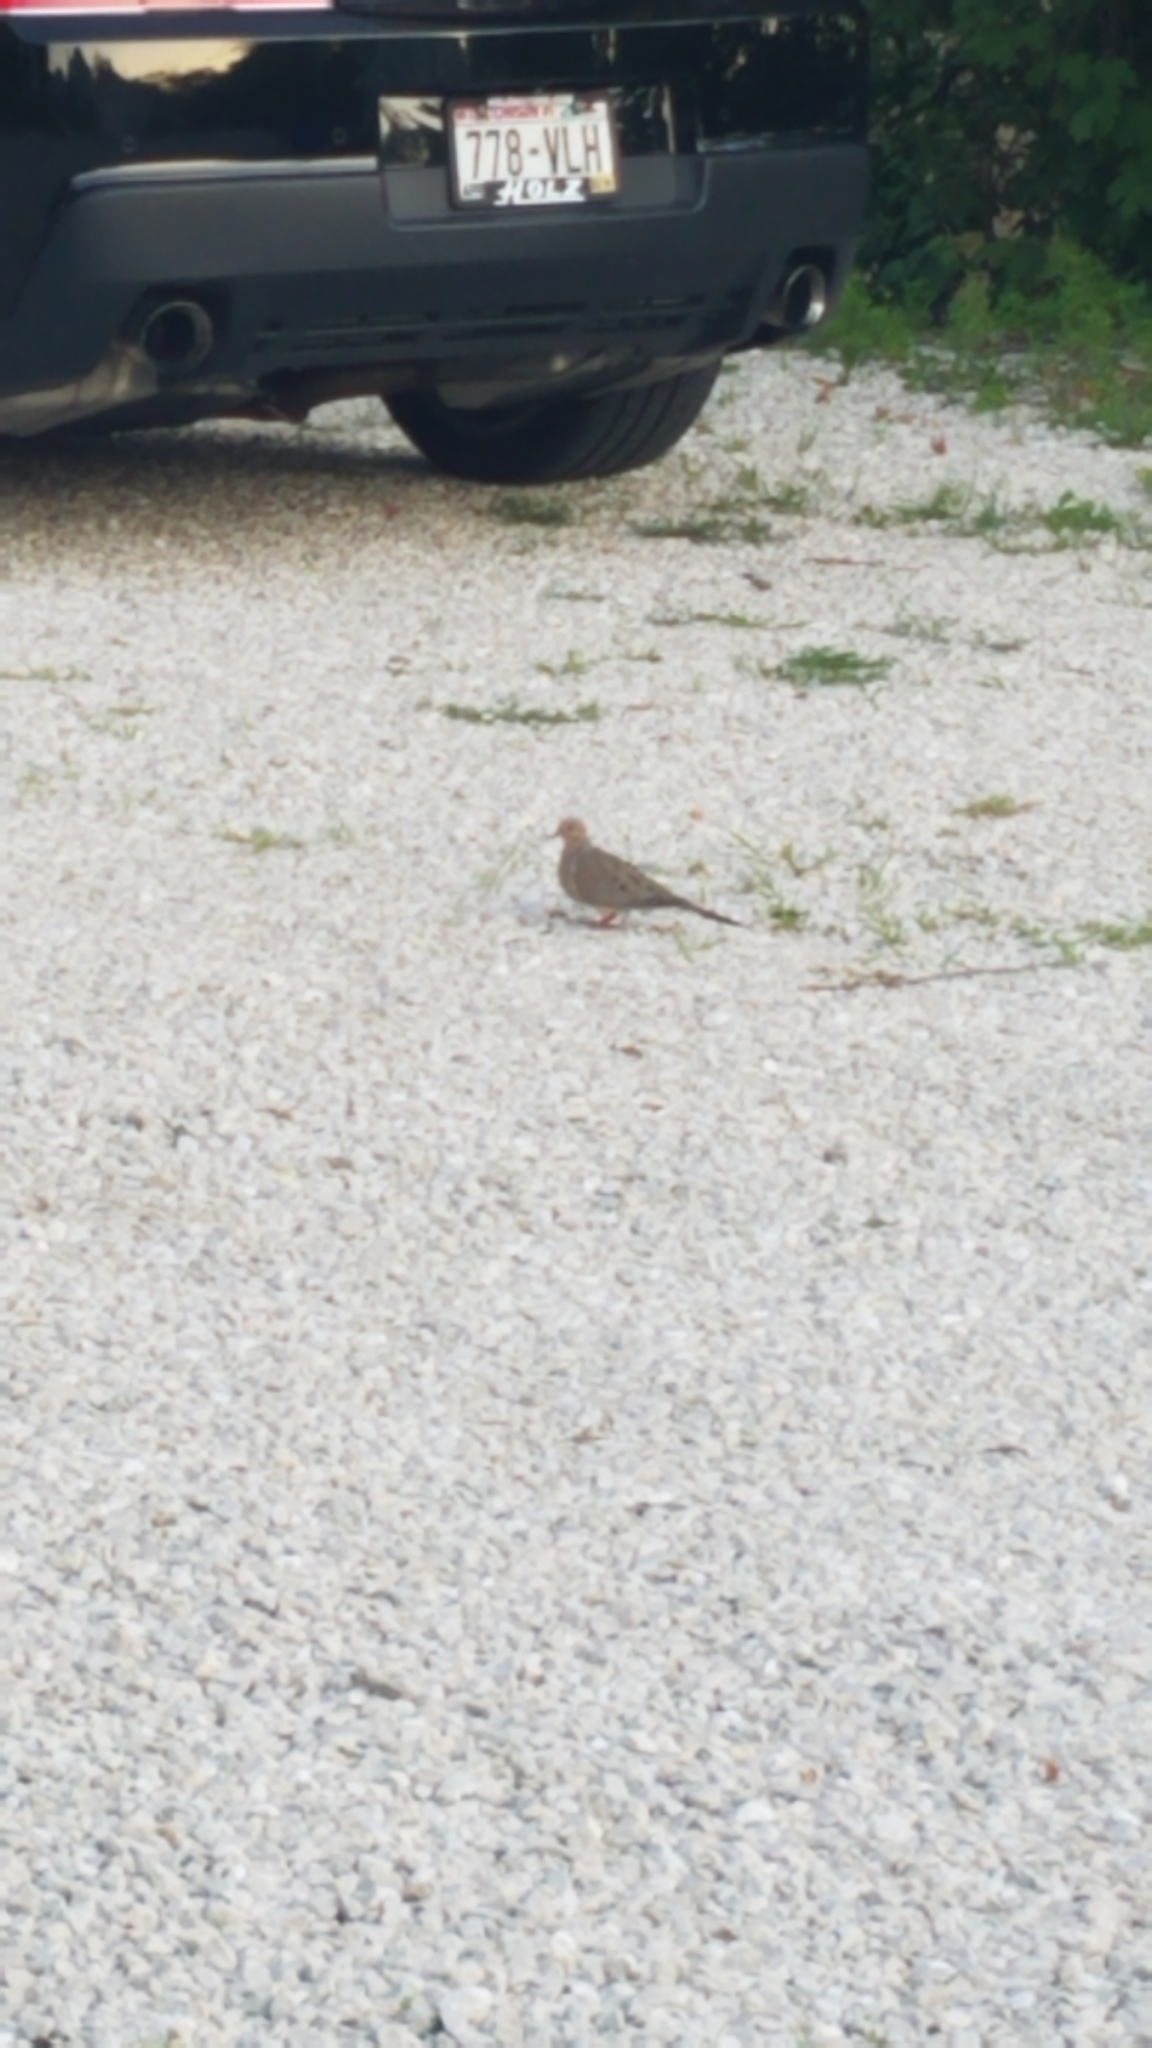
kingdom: Animalia
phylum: Chordata
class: Aves
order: Columbiformes
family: Columbidae
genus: Zenaida
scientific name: Zenaida macroura
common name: Mourning dove
